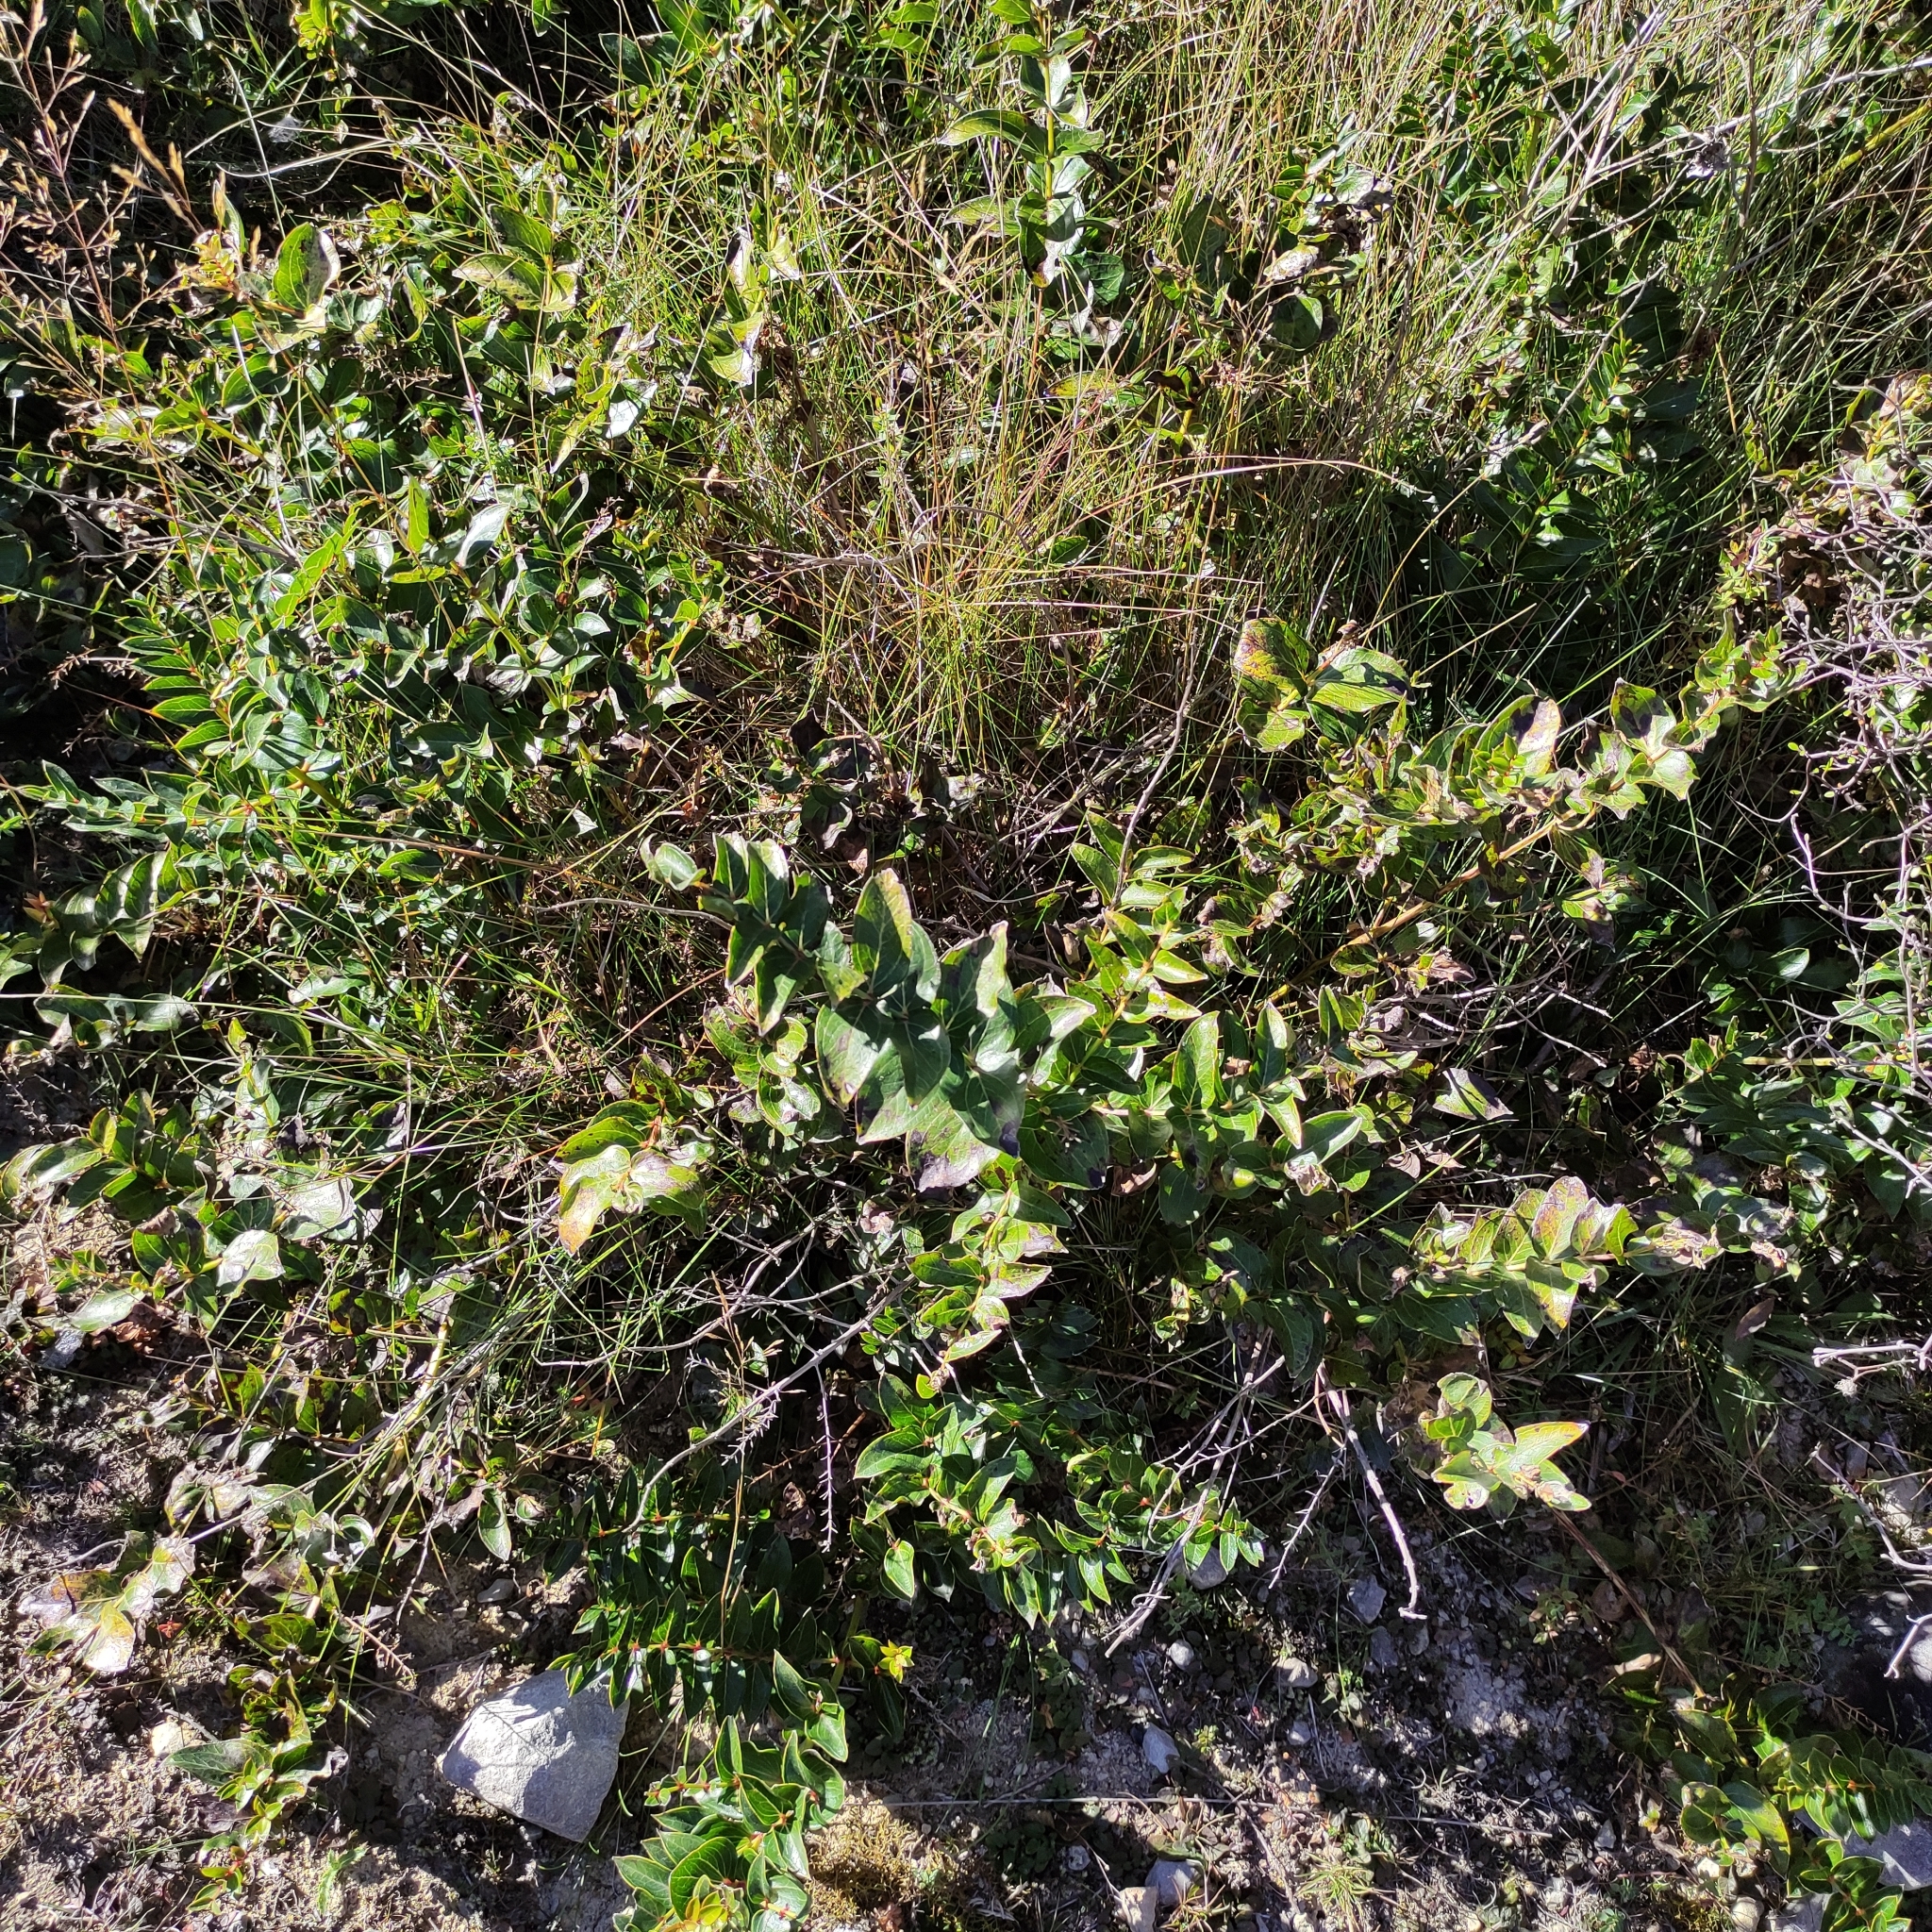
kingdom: Plantae
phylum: Tracheophyta
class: Magnoliopsida
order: Cucurbitales
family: Coriariaceae
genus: Coriaria
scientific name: Coriaria arborea
